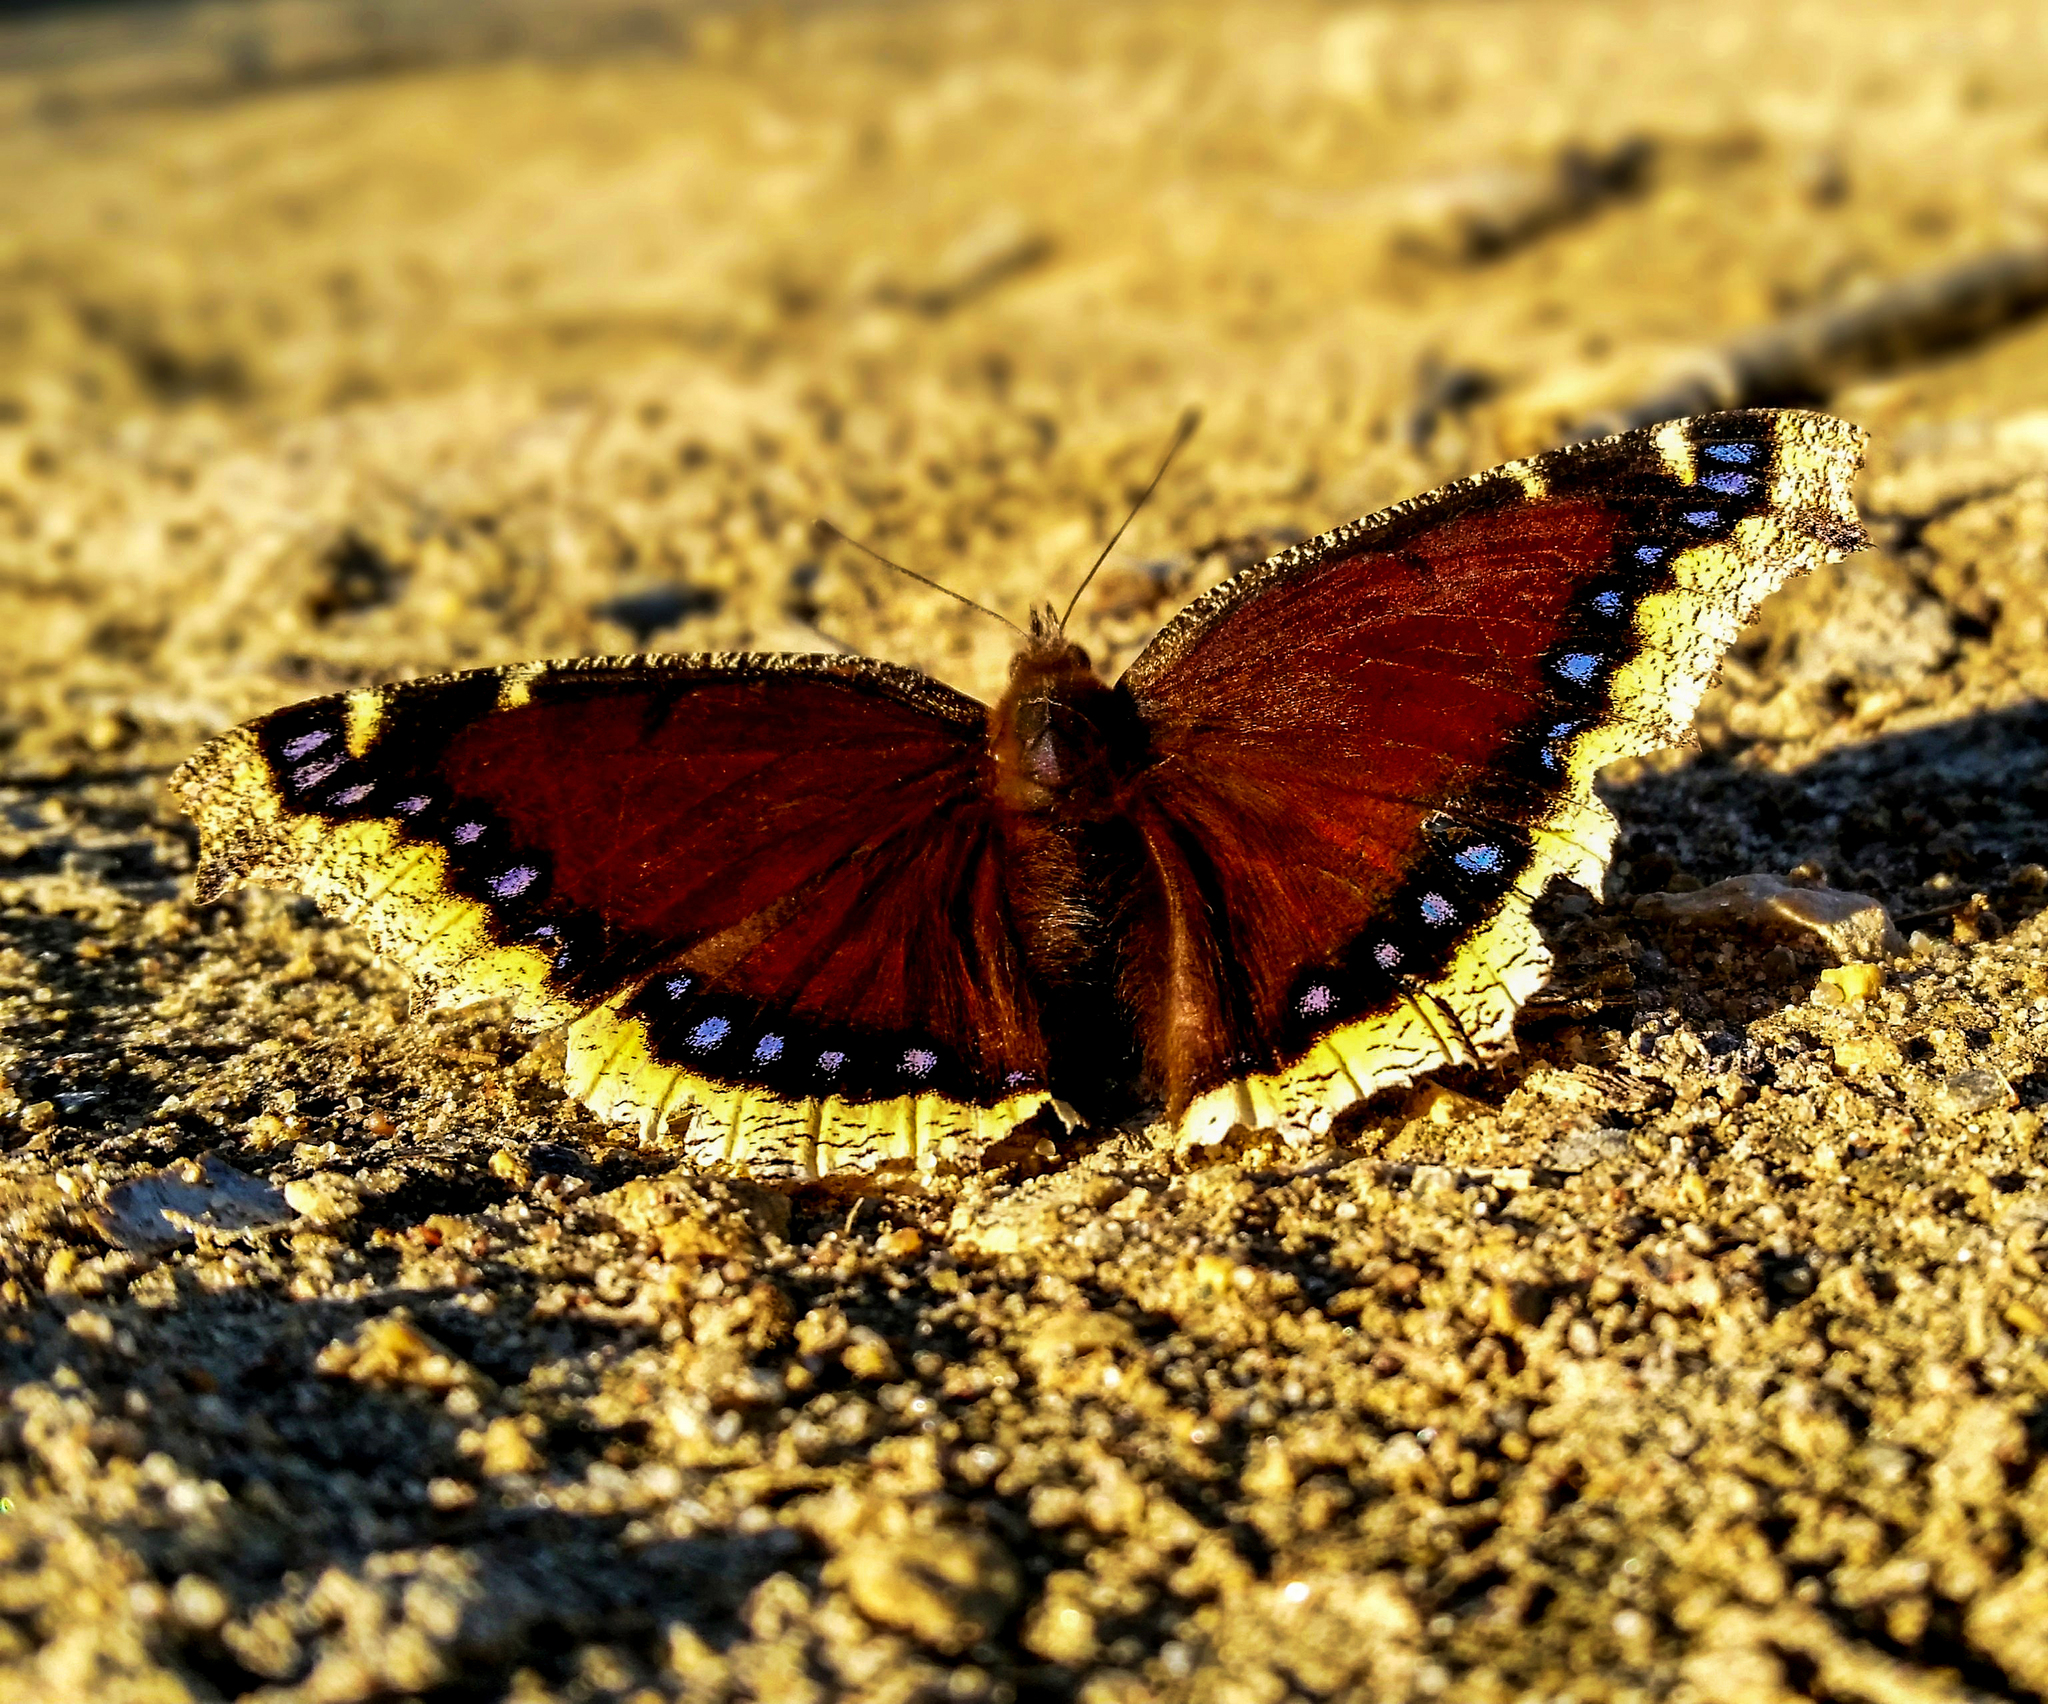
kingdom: Animalia
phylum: Arthropoda
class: Insecta
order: Lepidoptera
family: Nymphalidae
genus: Nymphalis
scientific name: Nymphalis antiopa
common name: Camberwell beauty
